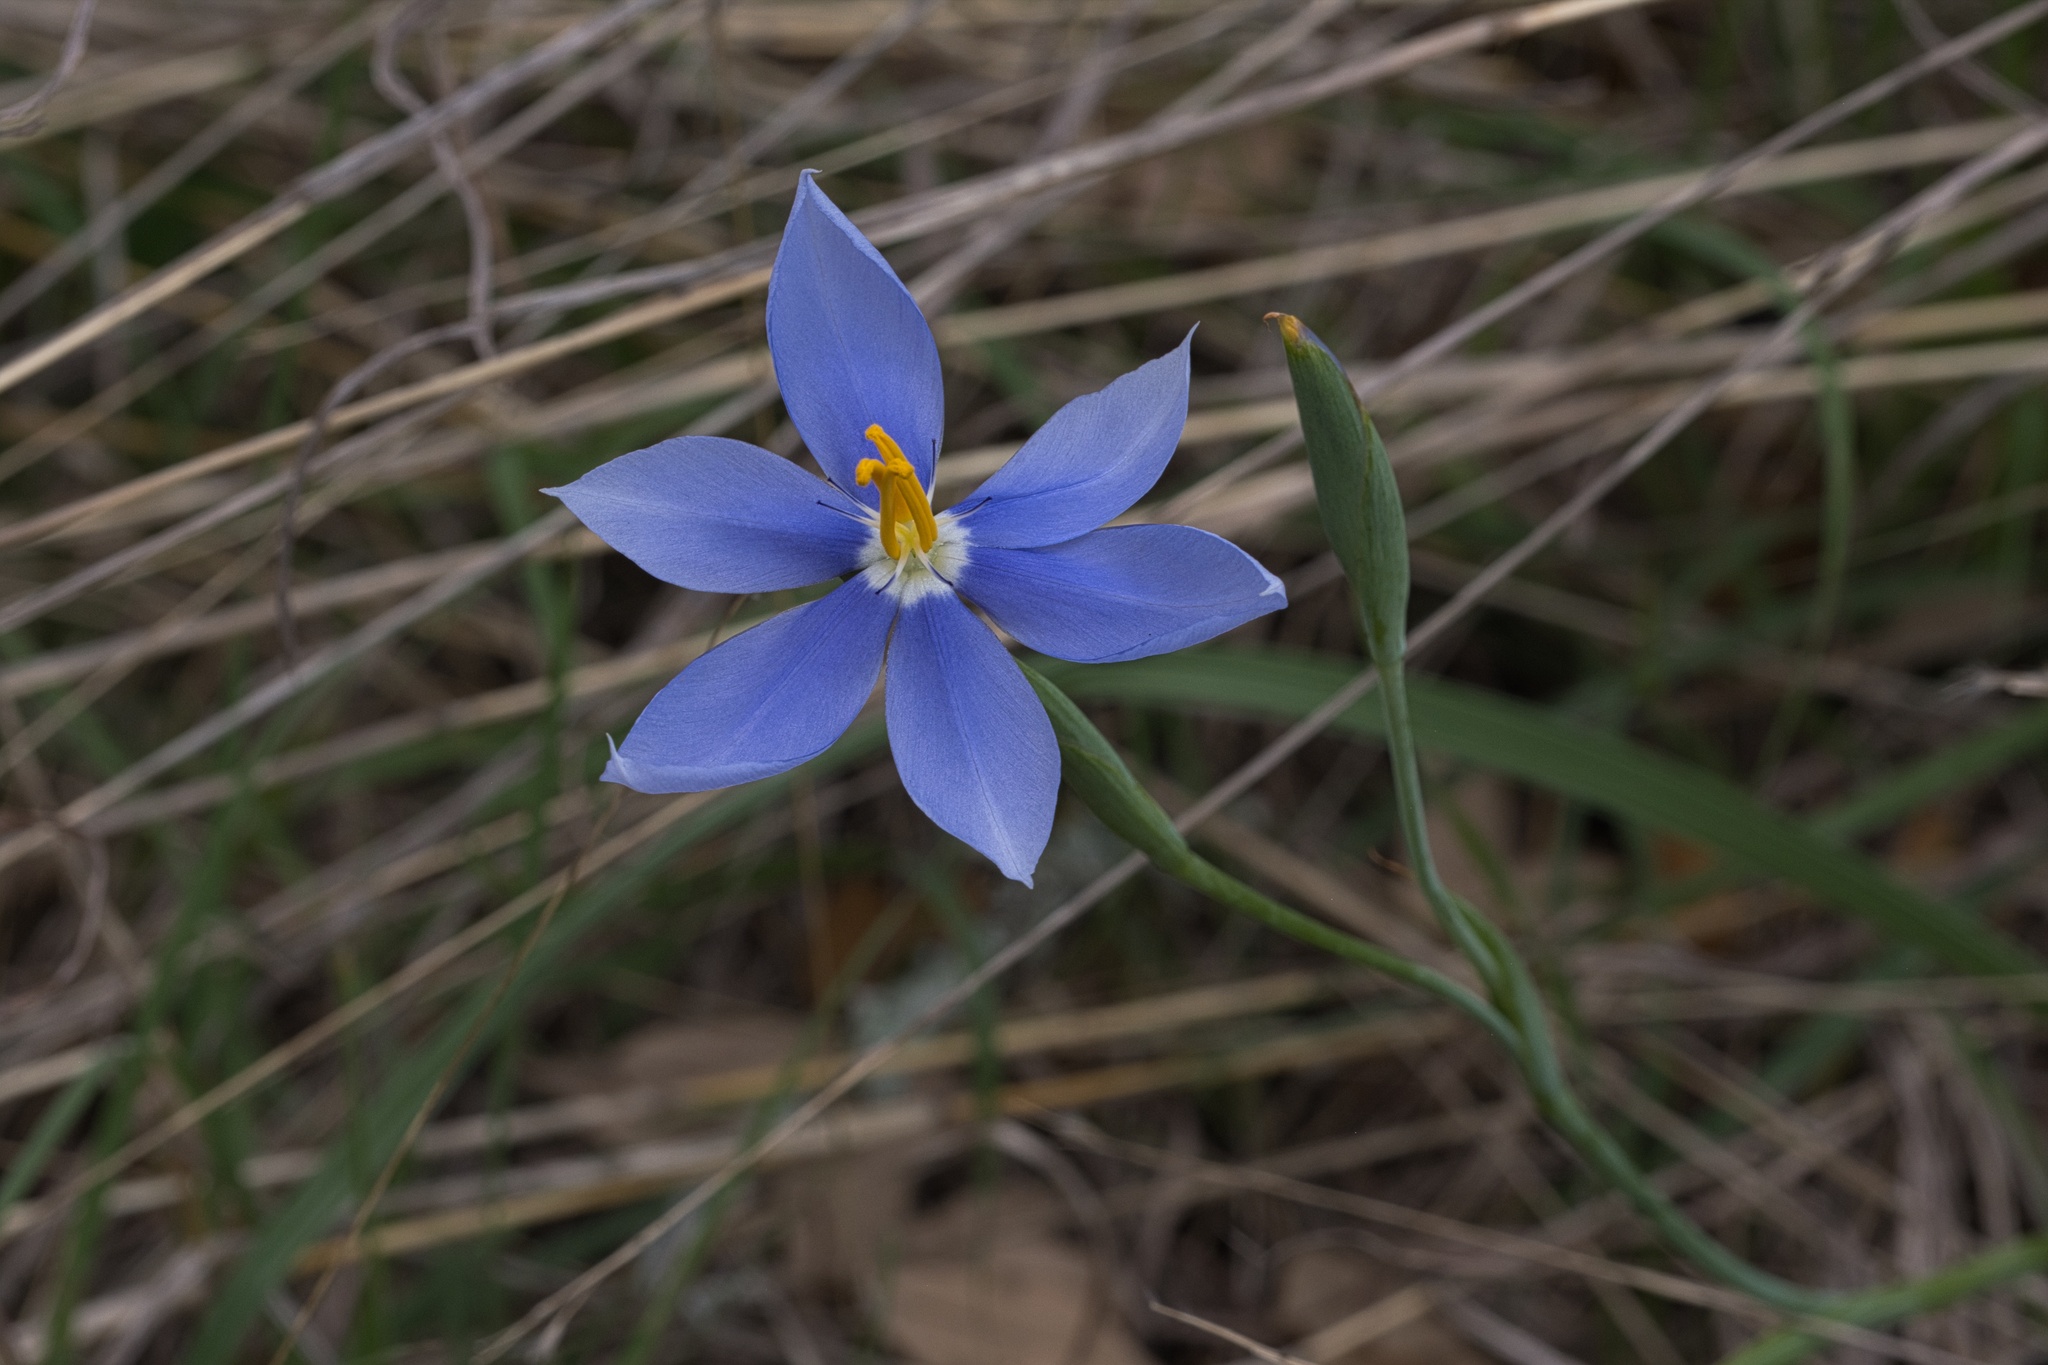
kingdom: Plantae
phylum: Tracheophyta
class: Liliopsida
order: Asparagales
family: Iridaceae
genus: Nemastylis
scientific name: Nemastylis geminiflora
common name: Prairie celestial
